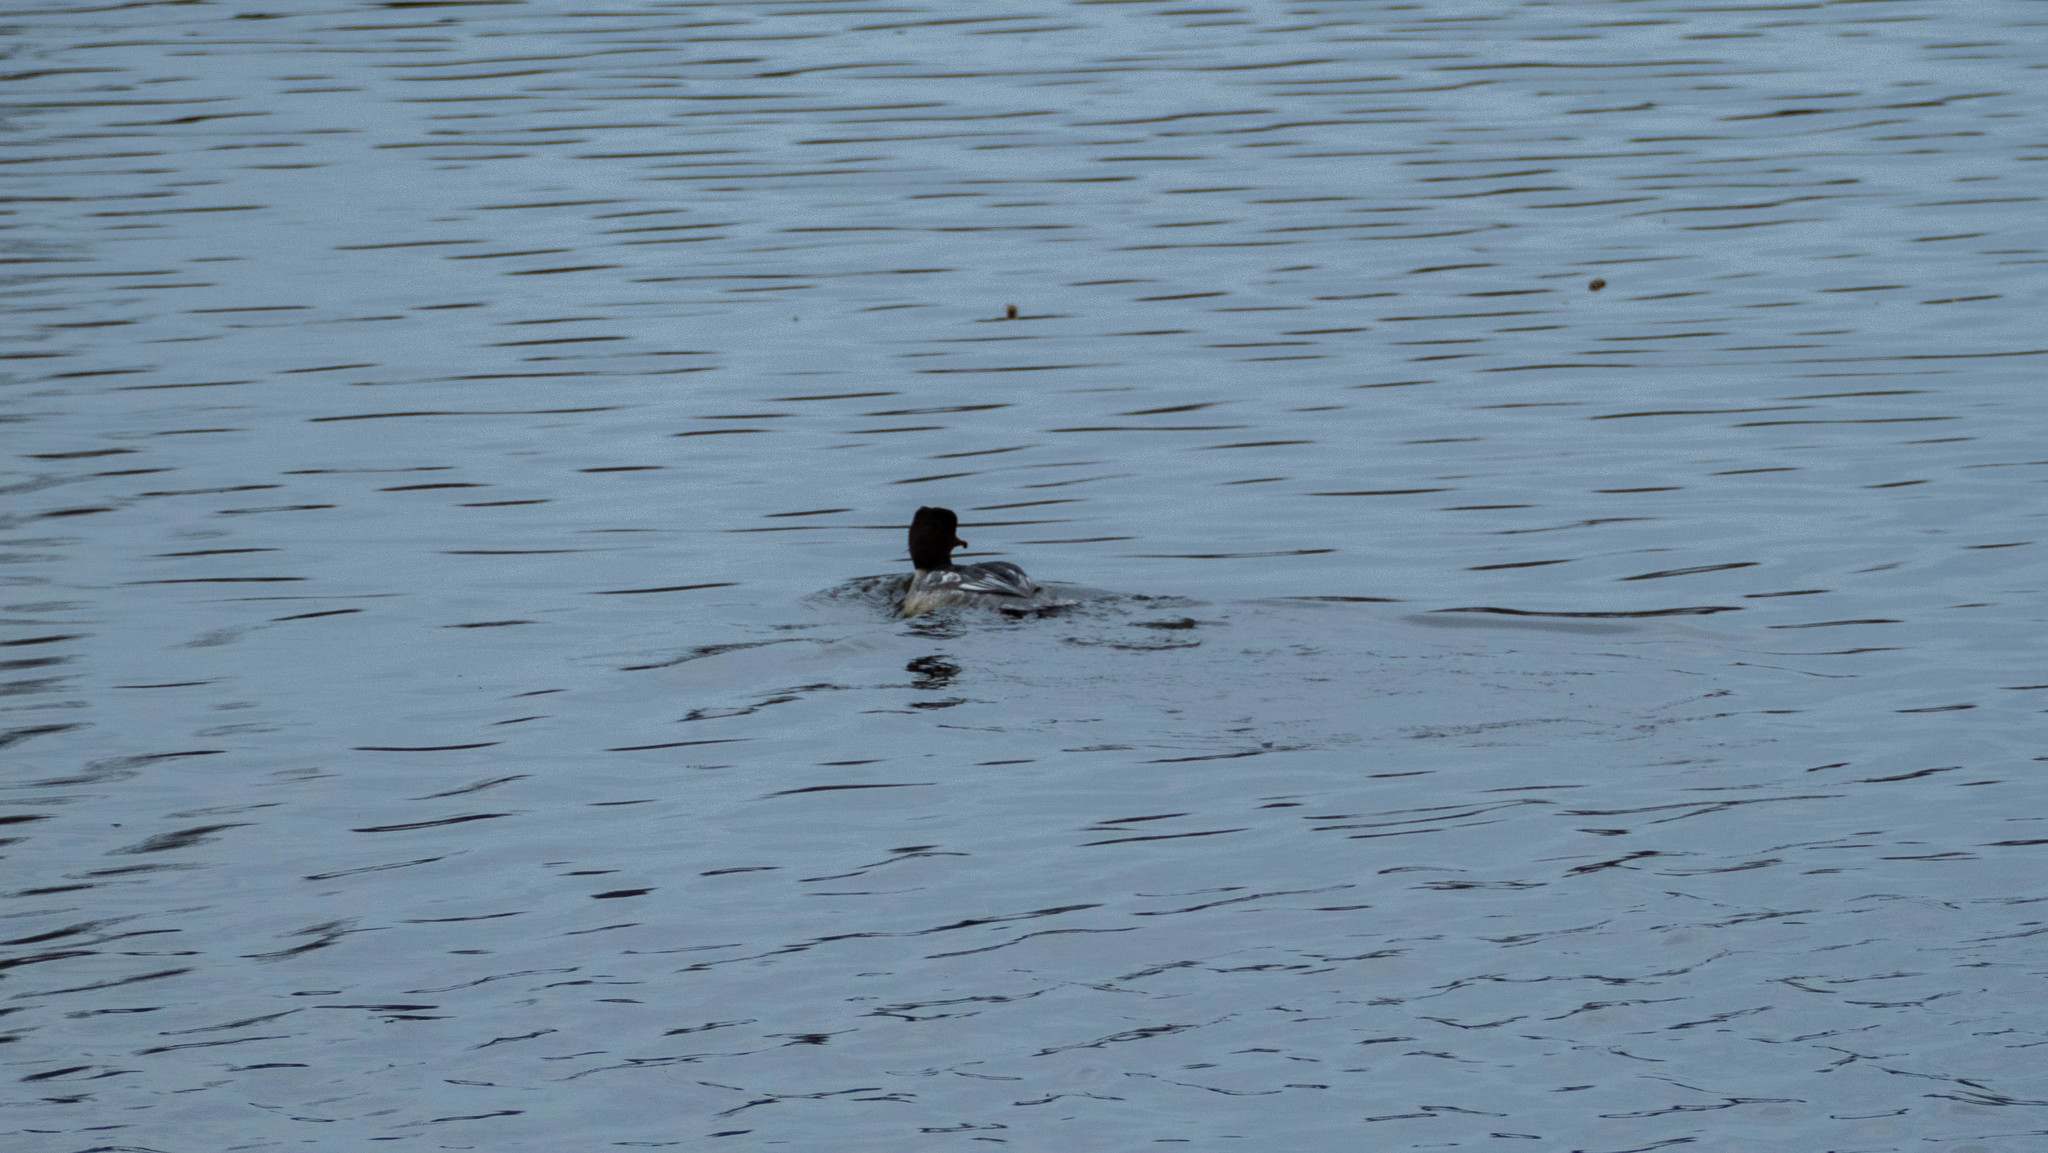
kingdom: Animalia
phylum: Chordata
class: Aves
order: Anseriformes
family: Anatidae
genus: Mergus
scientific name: Mergus merganser
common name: Common merganser
